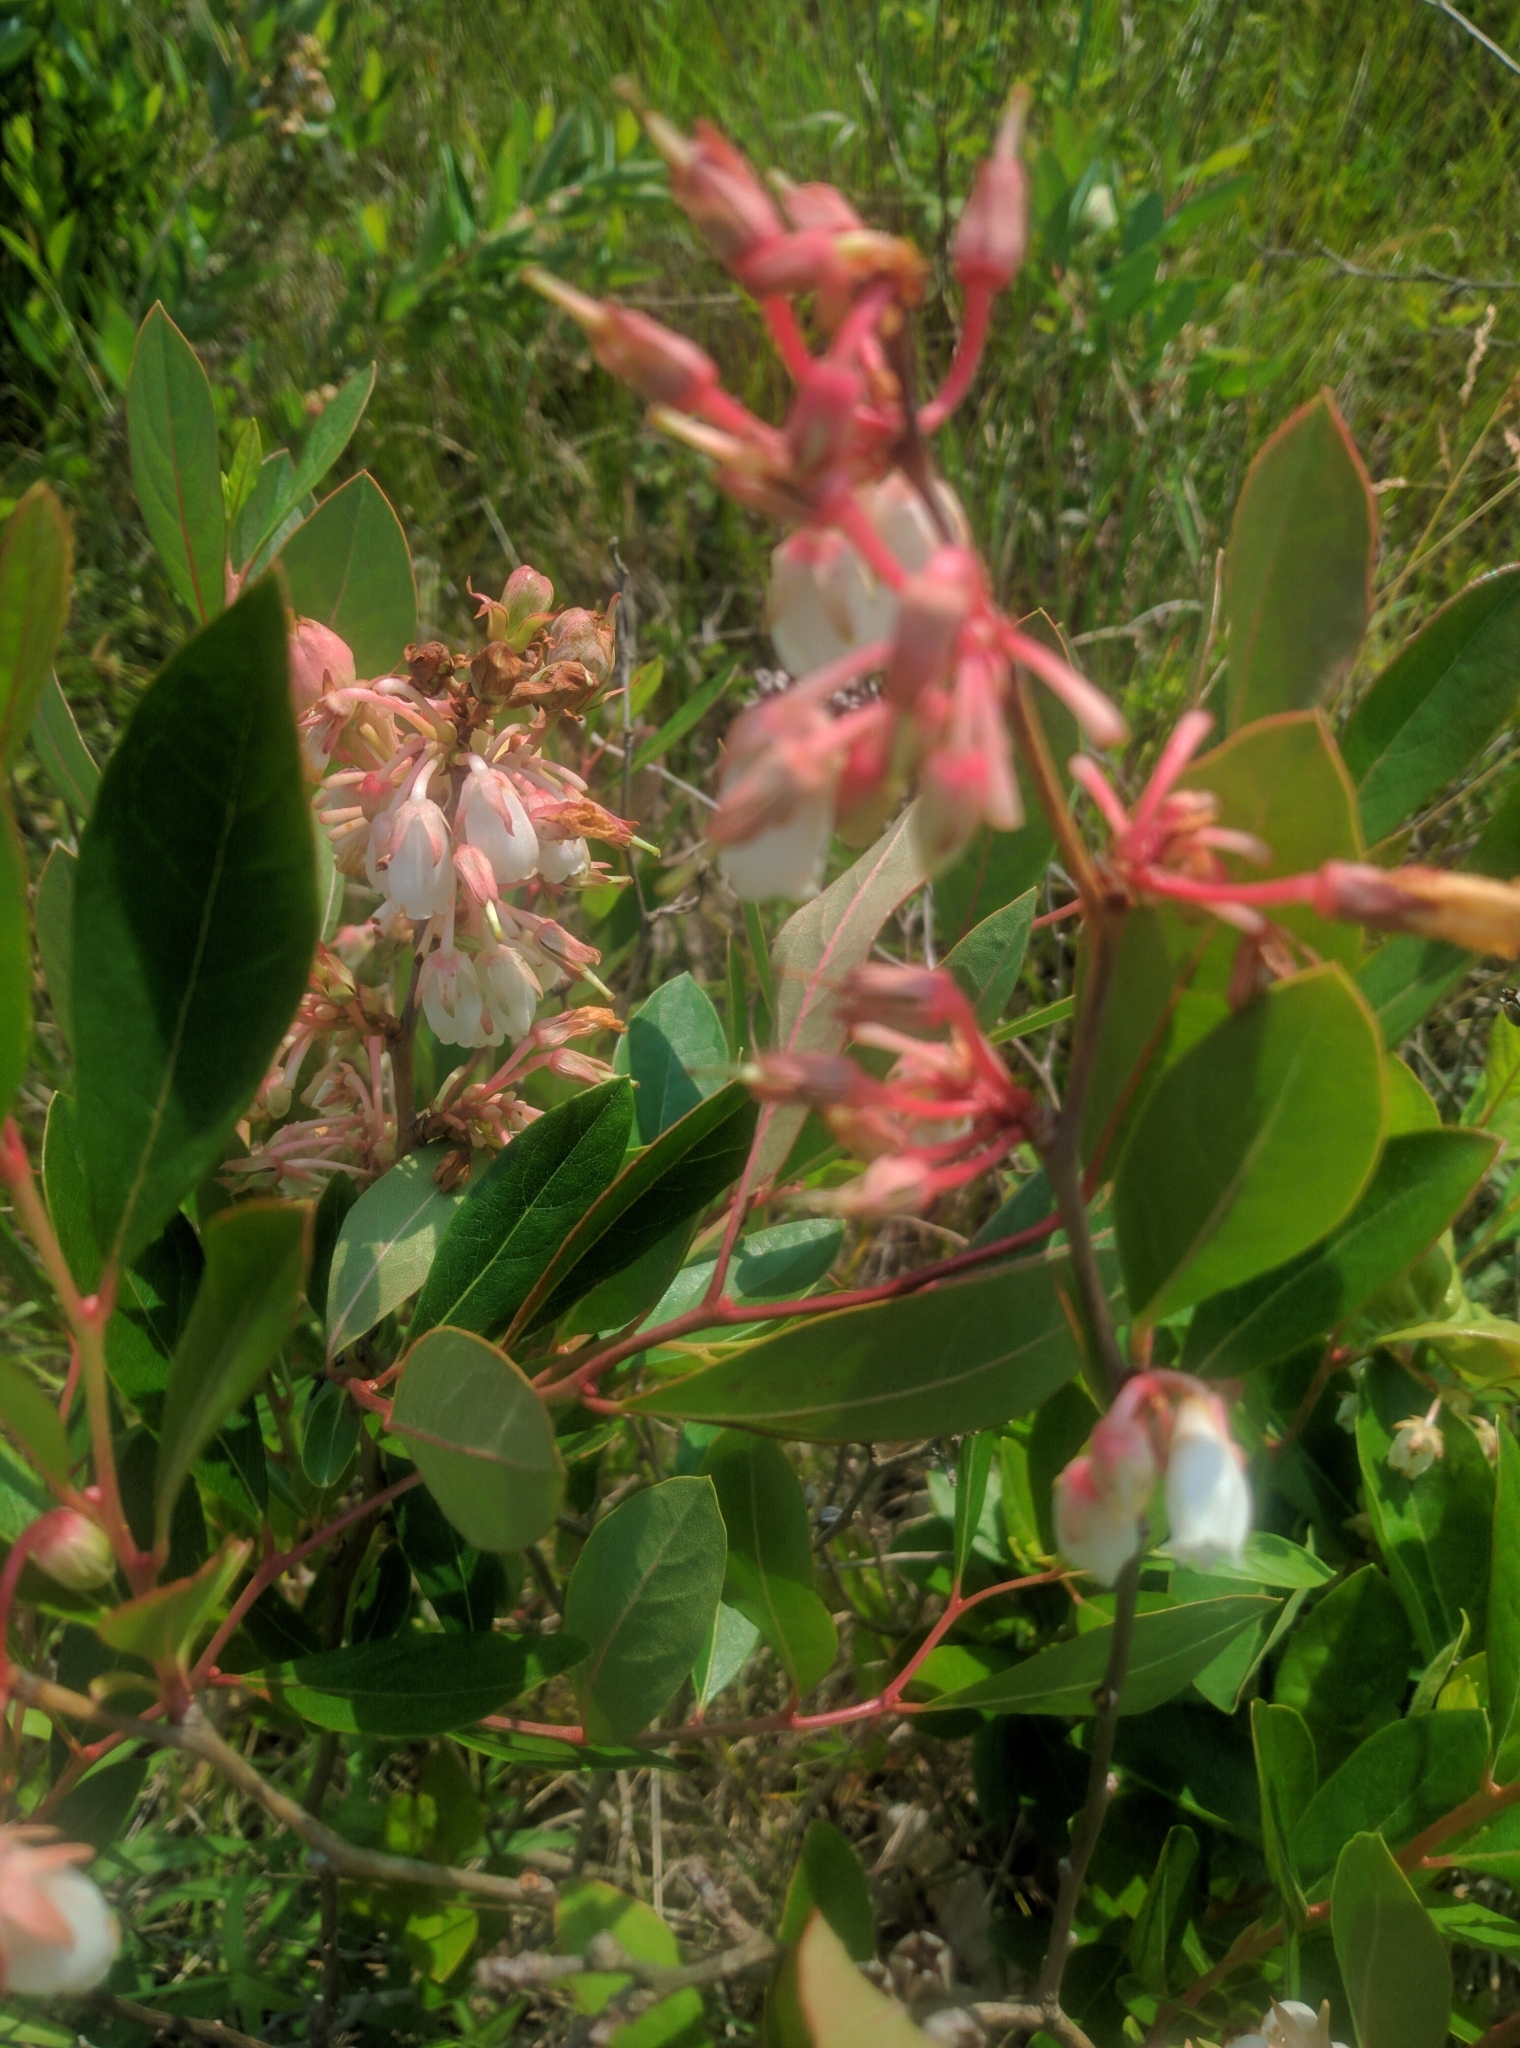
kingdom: Plantae
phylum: Tracheophyta
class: Magnoliopsida
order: Ericales
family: Ericaceae
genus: Lyonia
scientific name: Lyonia mariana
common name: Staggerbush
